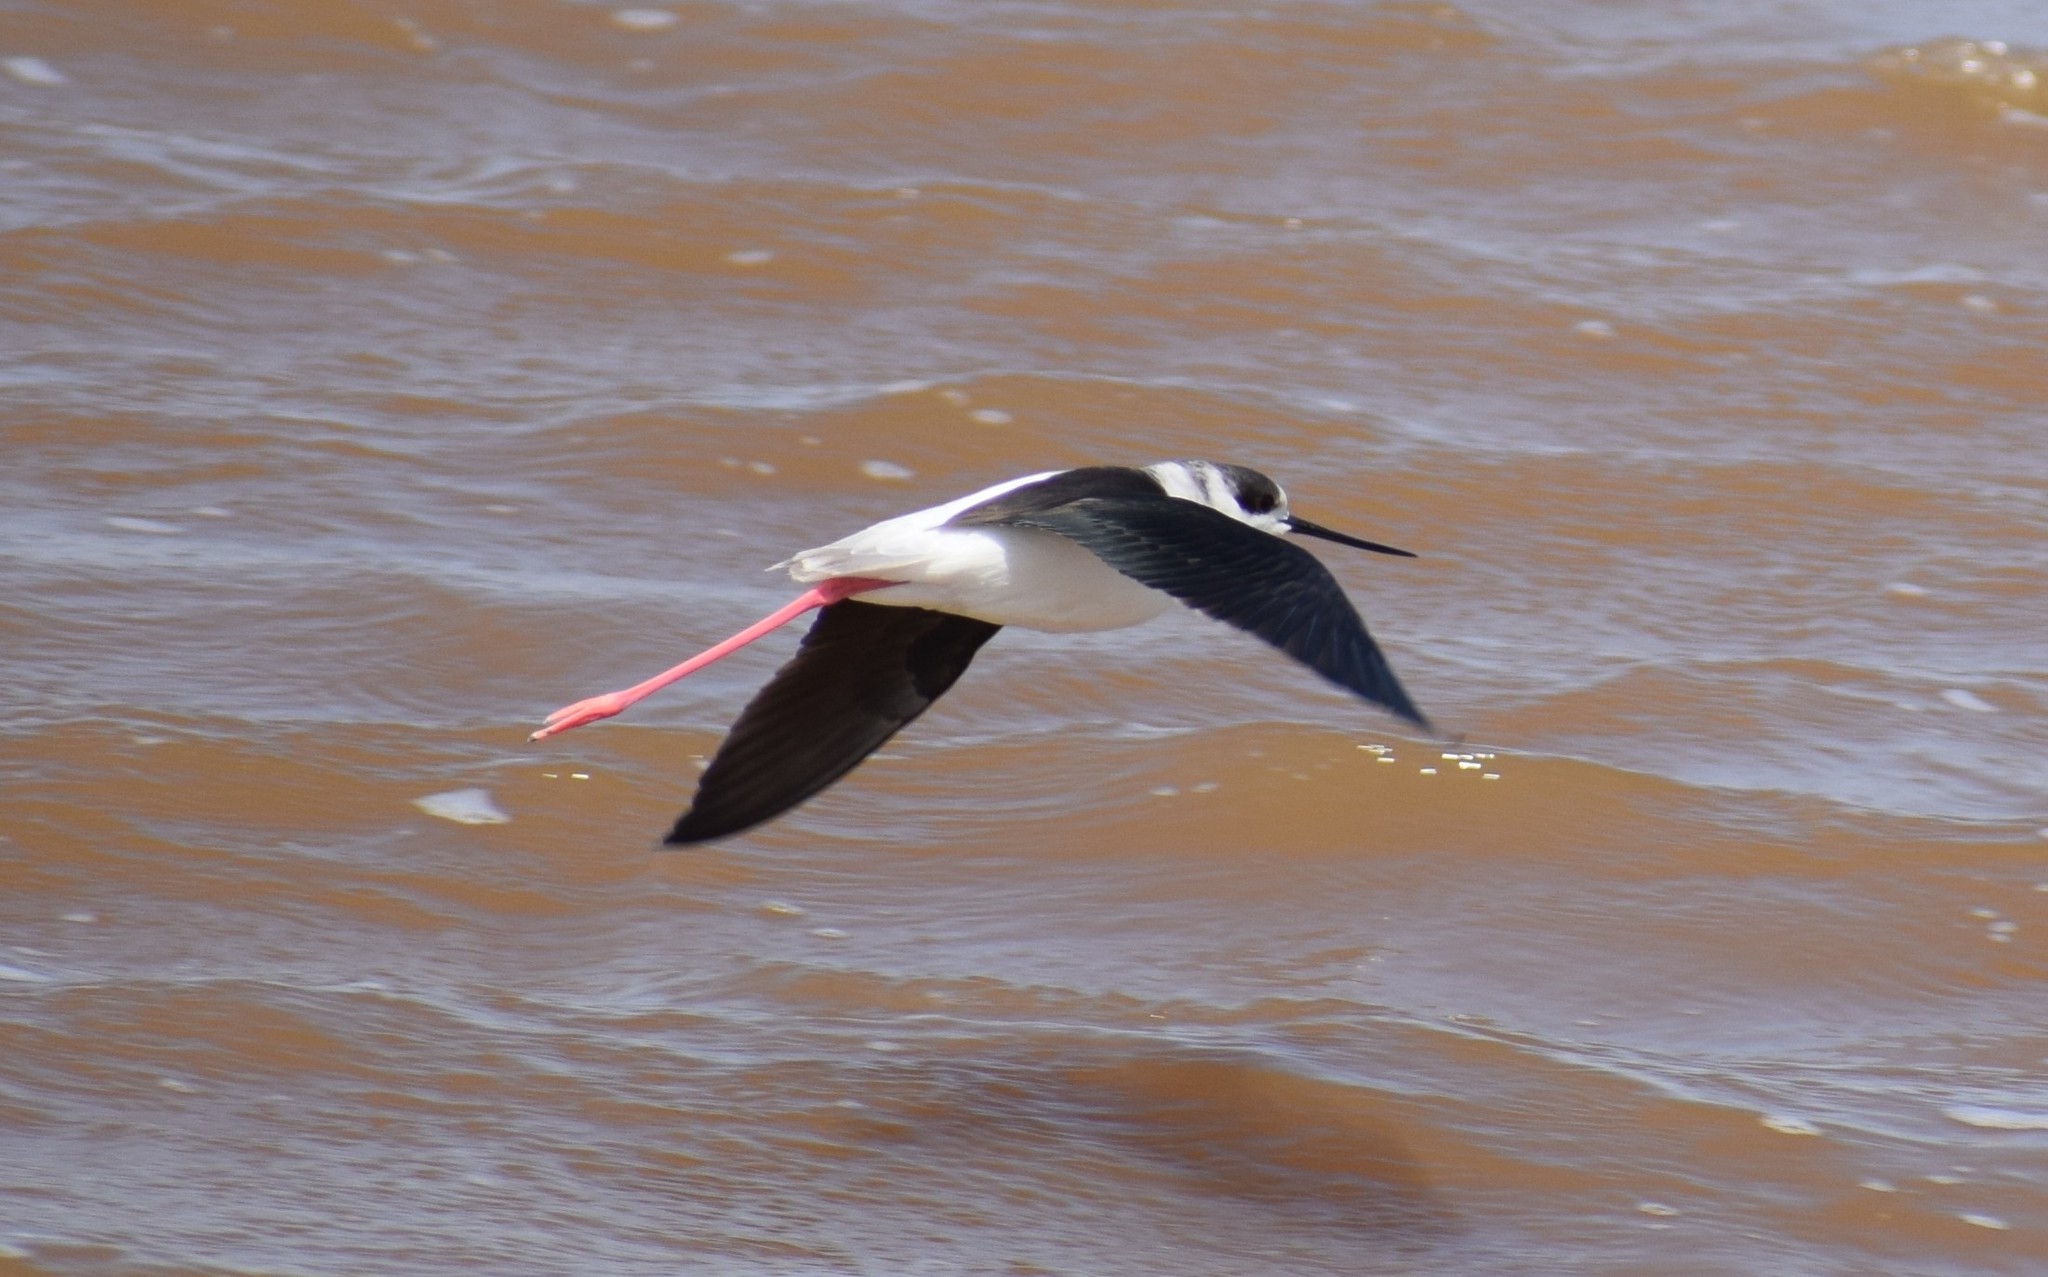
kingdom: Animalia
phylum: Chordata
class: Aves
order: Charadriiformes
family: Recurvirostridae
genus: Himantopus
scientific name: Himantopus himantopus
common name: Black-winged stilt
